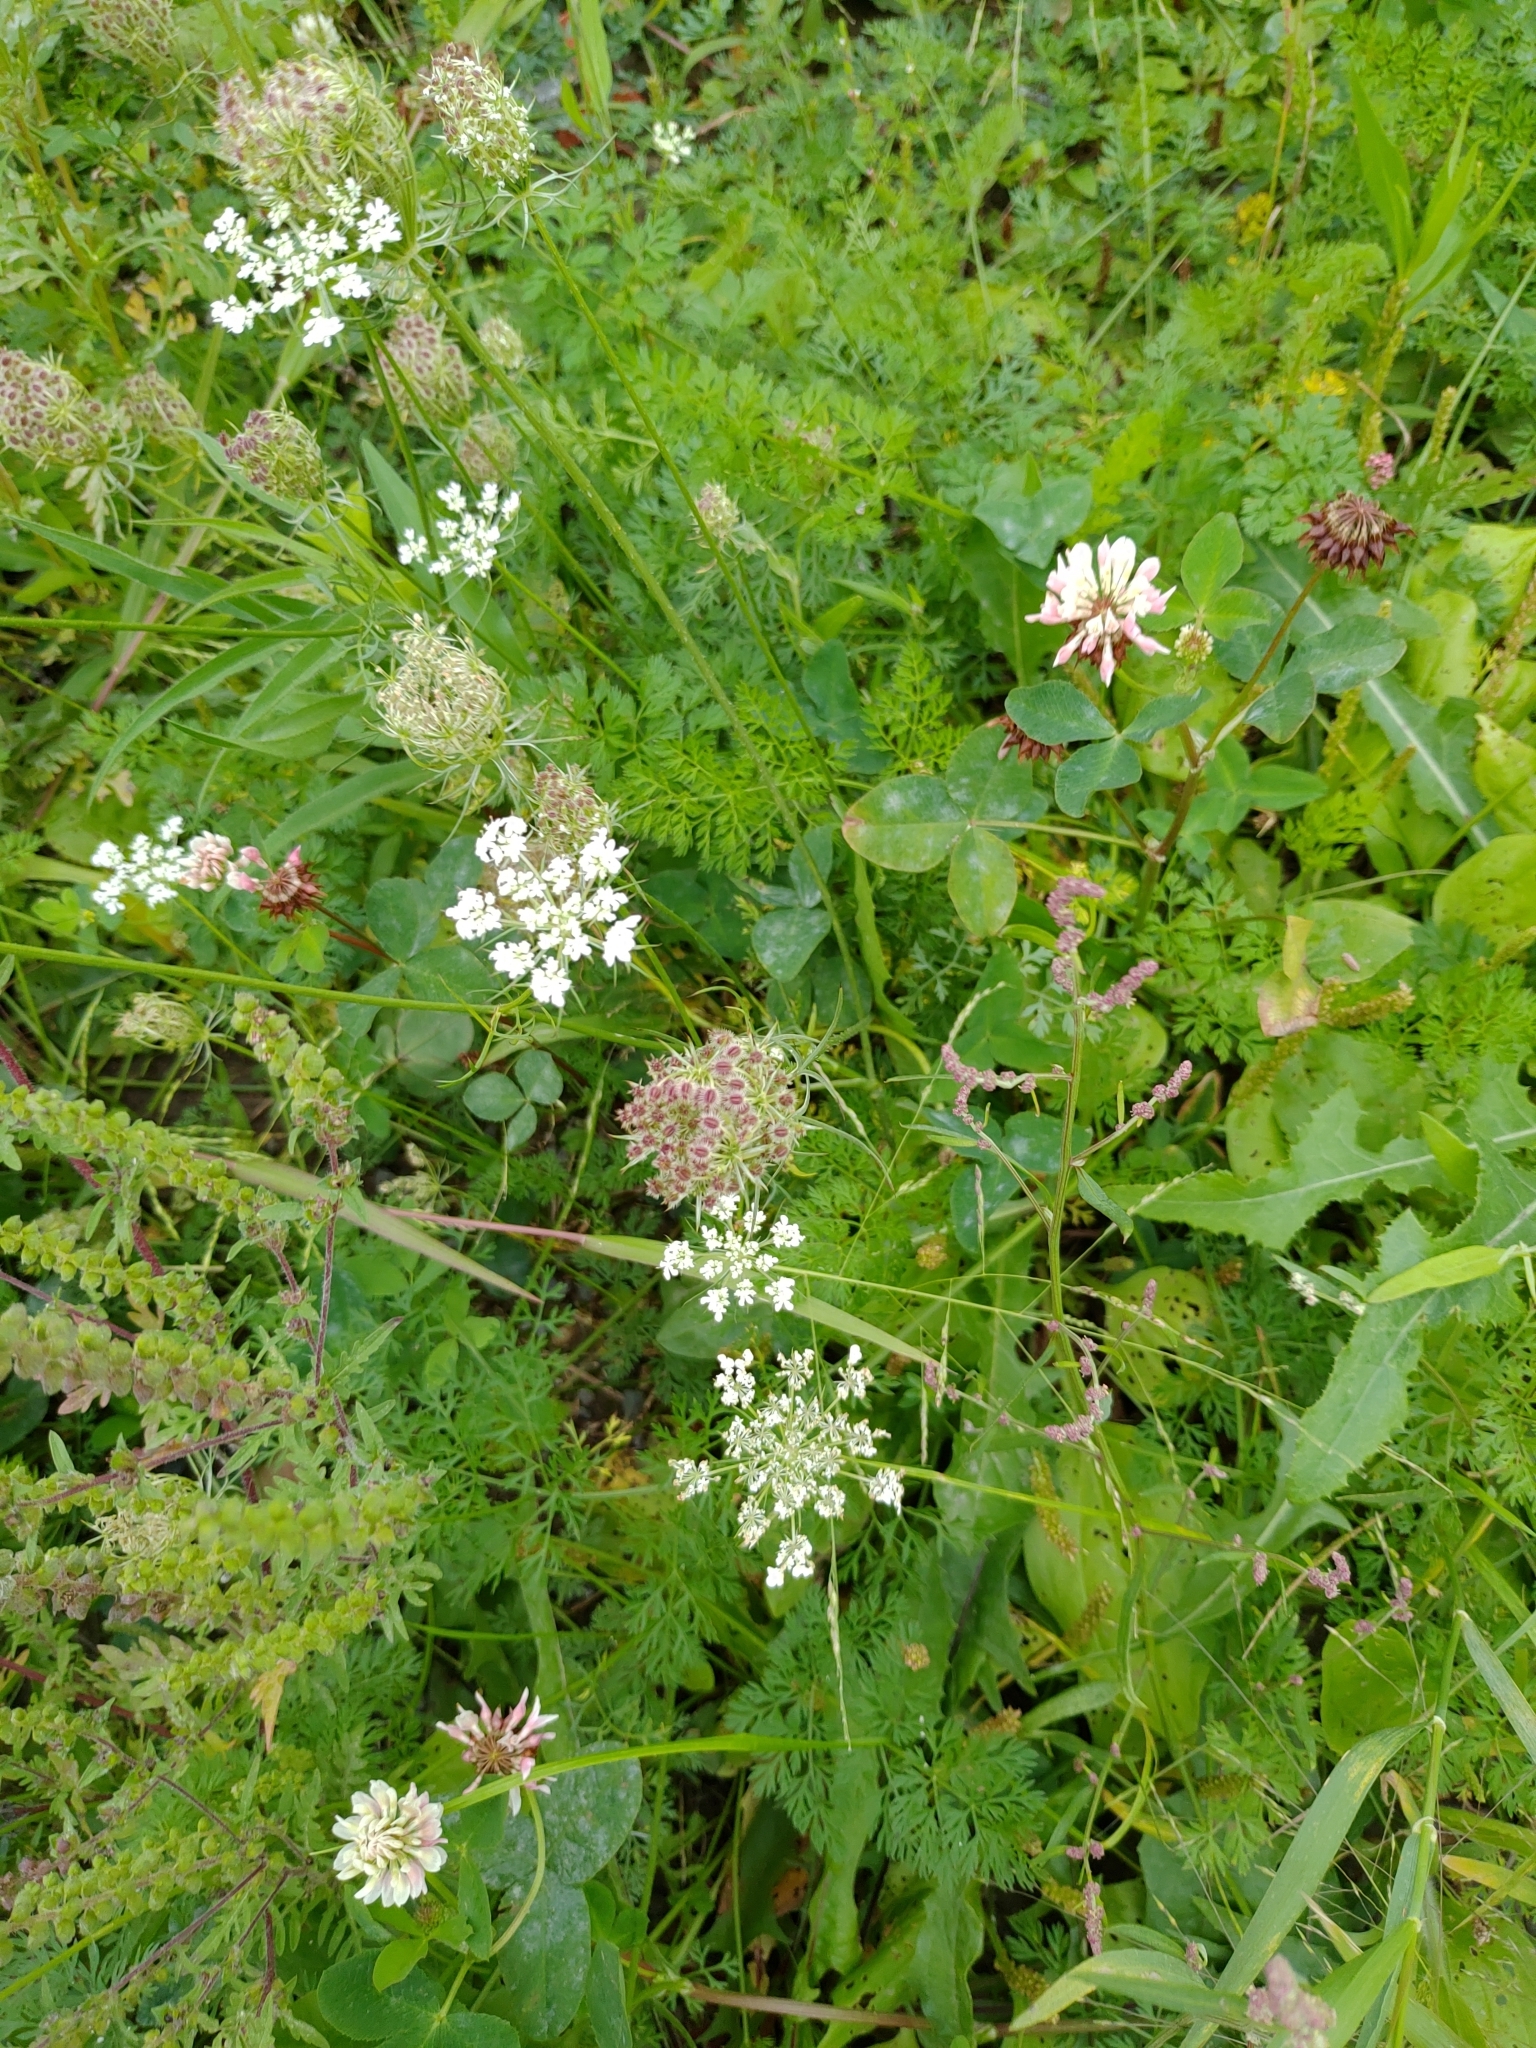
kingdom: Plantae
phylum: Tracheophyta
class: Magnoliopsida
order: Apiales
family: Apiaceae
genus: Daucus
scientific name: Daucus carota
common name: Wild carrot
